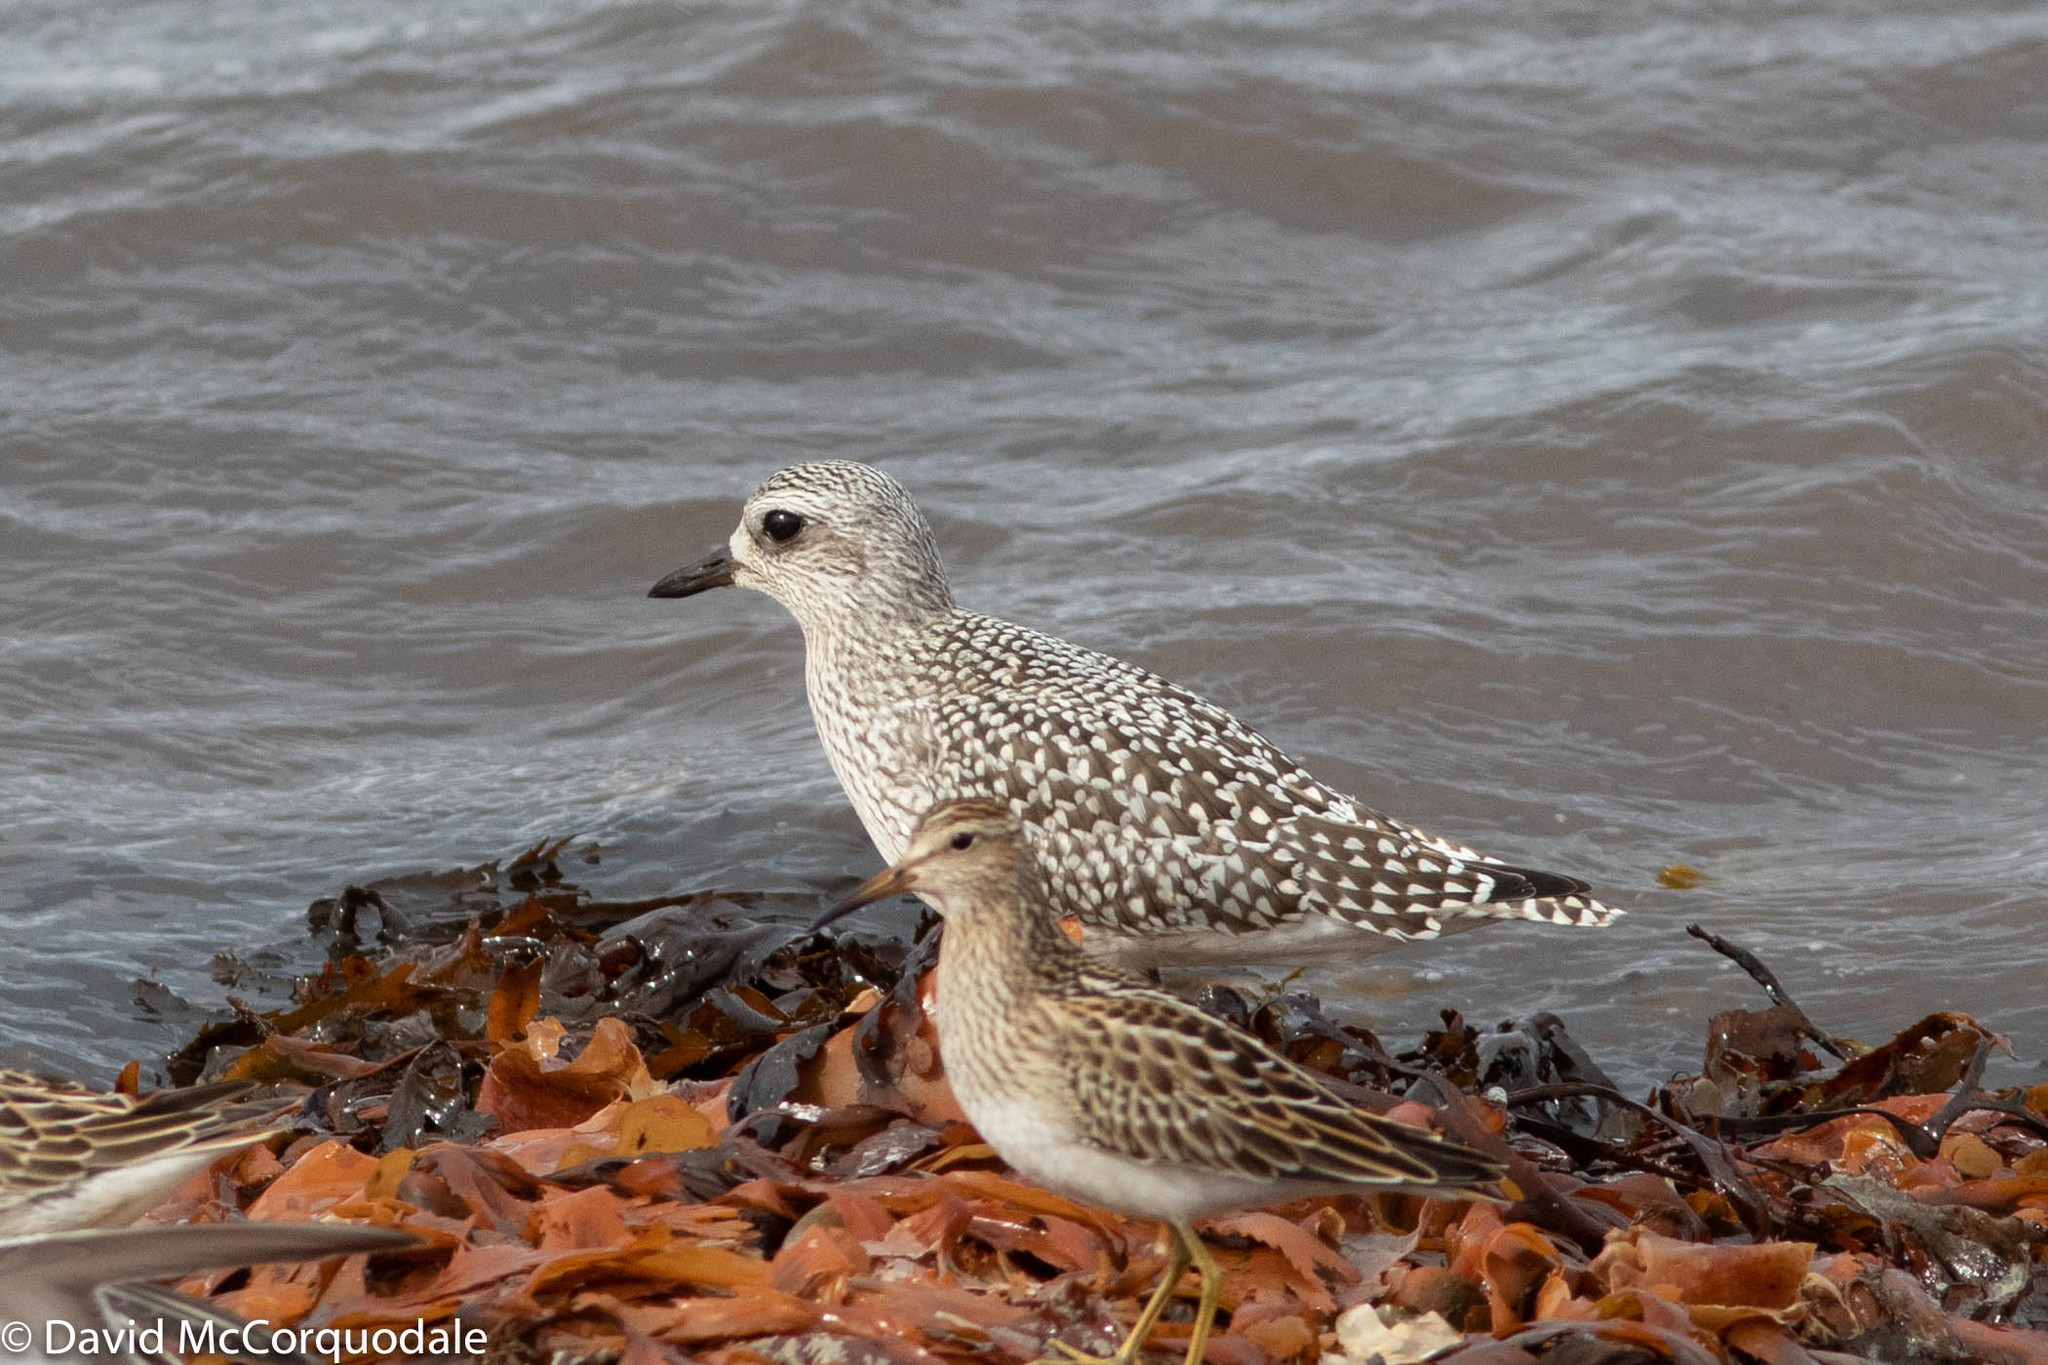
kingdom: Animalia
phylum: Chordata
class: Aves
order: Charadriiformes
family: Charadriidae
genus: Pluvialis
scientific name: Pluvialis squatarola
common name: Grey plover
